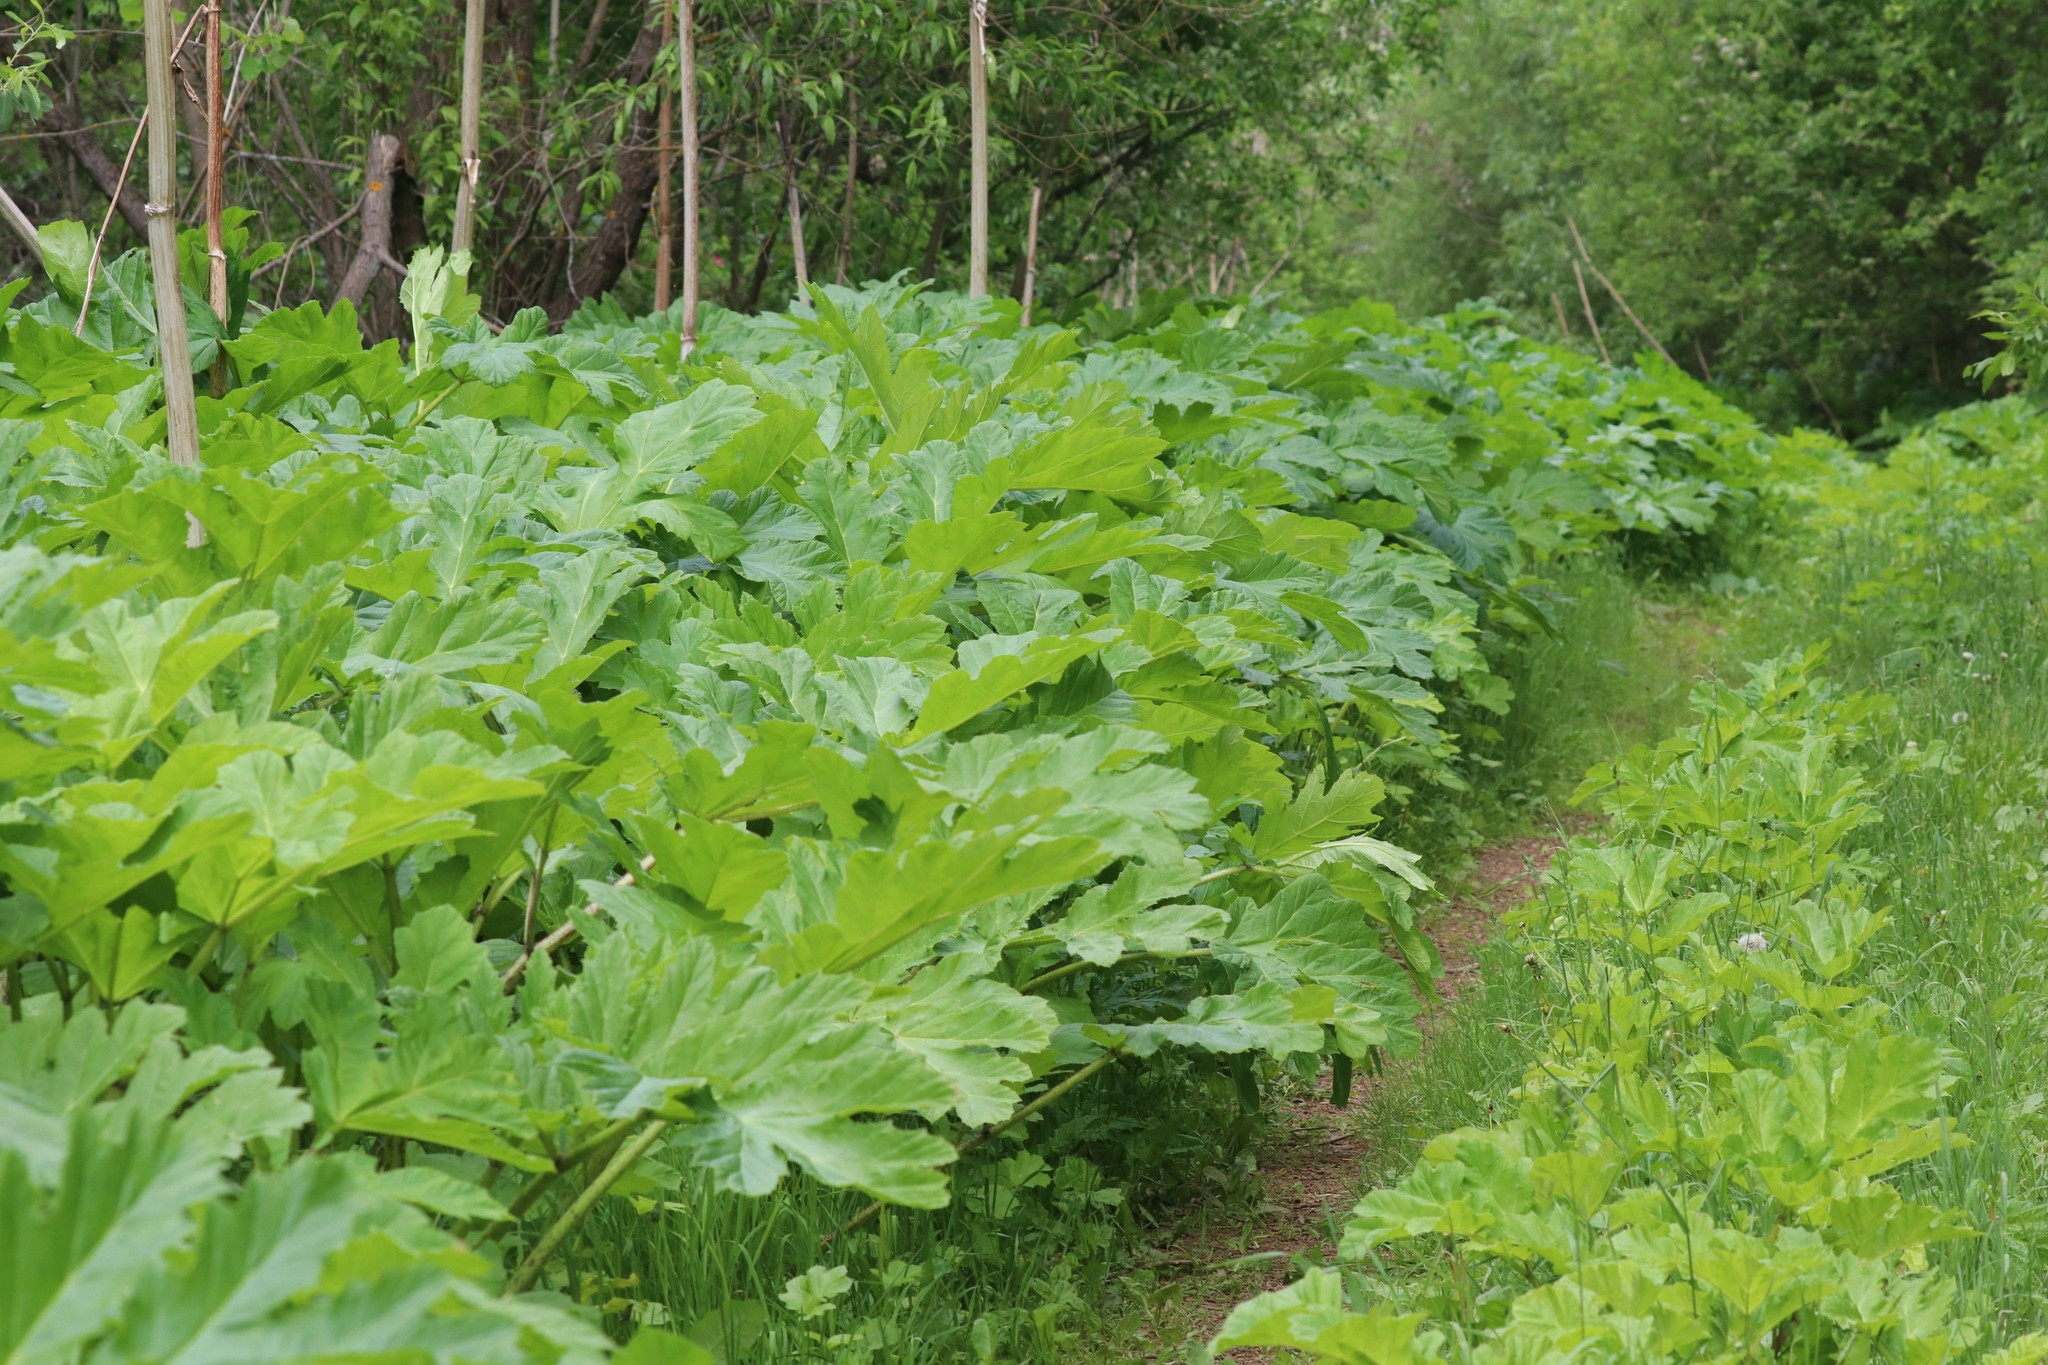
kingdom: Plantae
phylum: Tracheophyta
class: Magnoliopsida
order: Apiales
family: Apiaceae
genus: Heracleum
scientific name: Heracleum sosnowskyi
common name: Sosnowsky's hogweed
